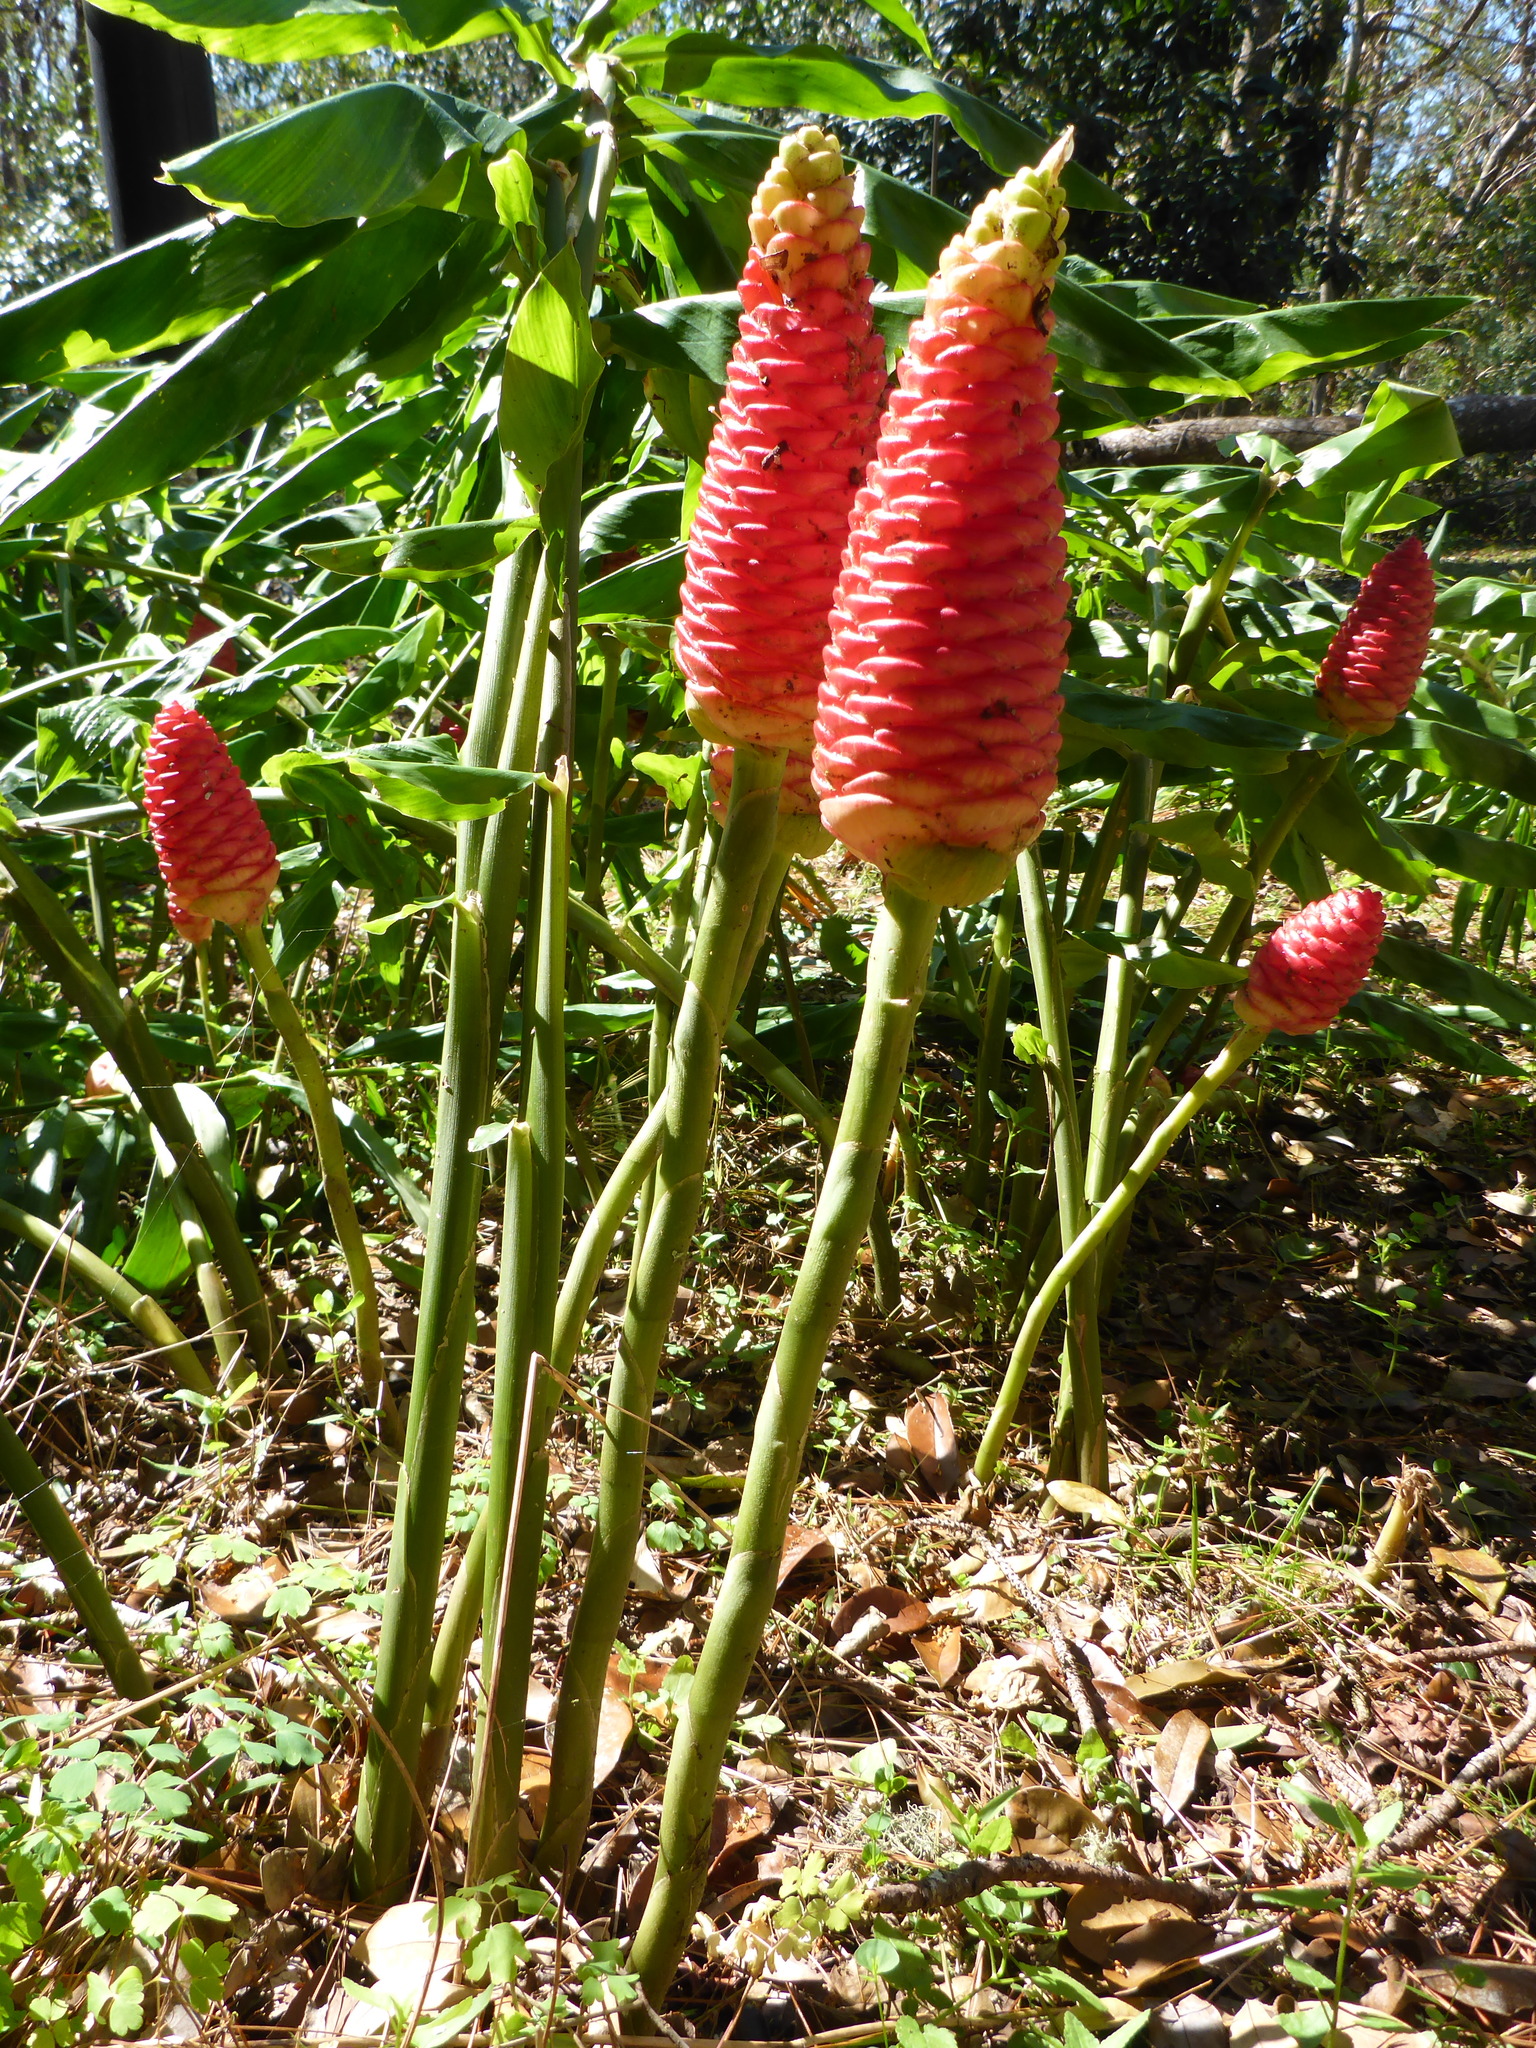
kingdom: Plantae
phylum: Tracheophyta
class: Liliopsida
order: Zingiberales
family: Zingiberaceae
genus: Zingiber
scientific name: Zingiber zerumbet
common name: Bitter ginger
